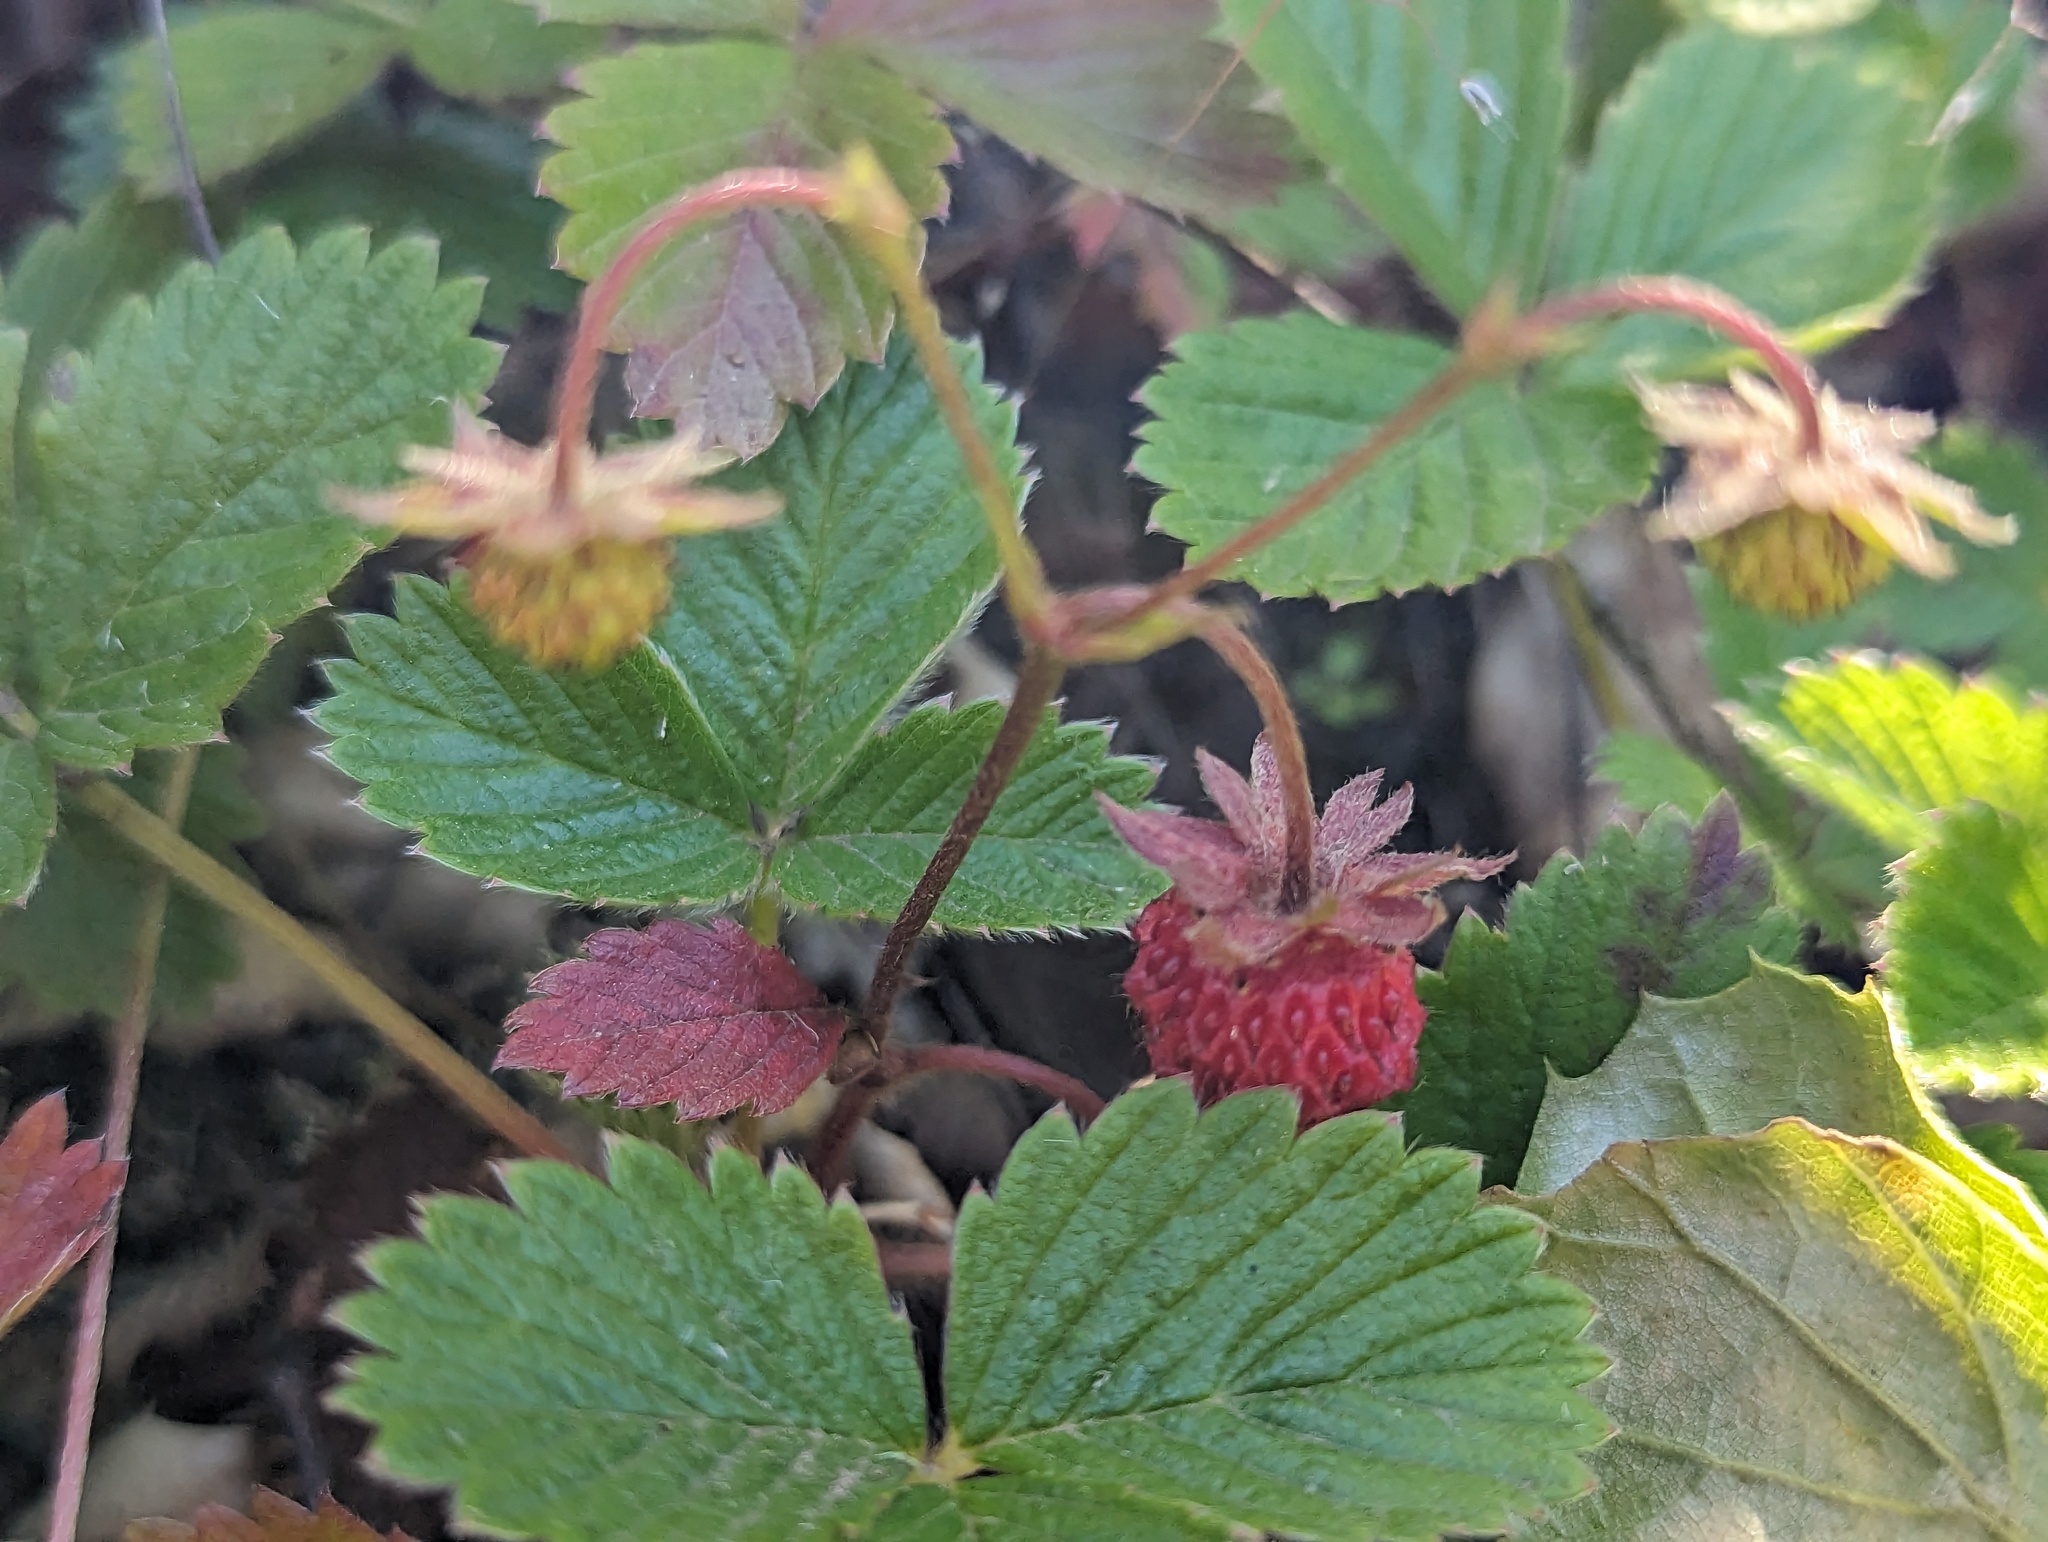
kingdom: Plantae
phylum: Tracheophyta
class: Magnoliopsida
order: Rosales
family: Rosaceae
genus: Fragaria
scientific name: Fragaria vesca
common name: Wild strawberry
